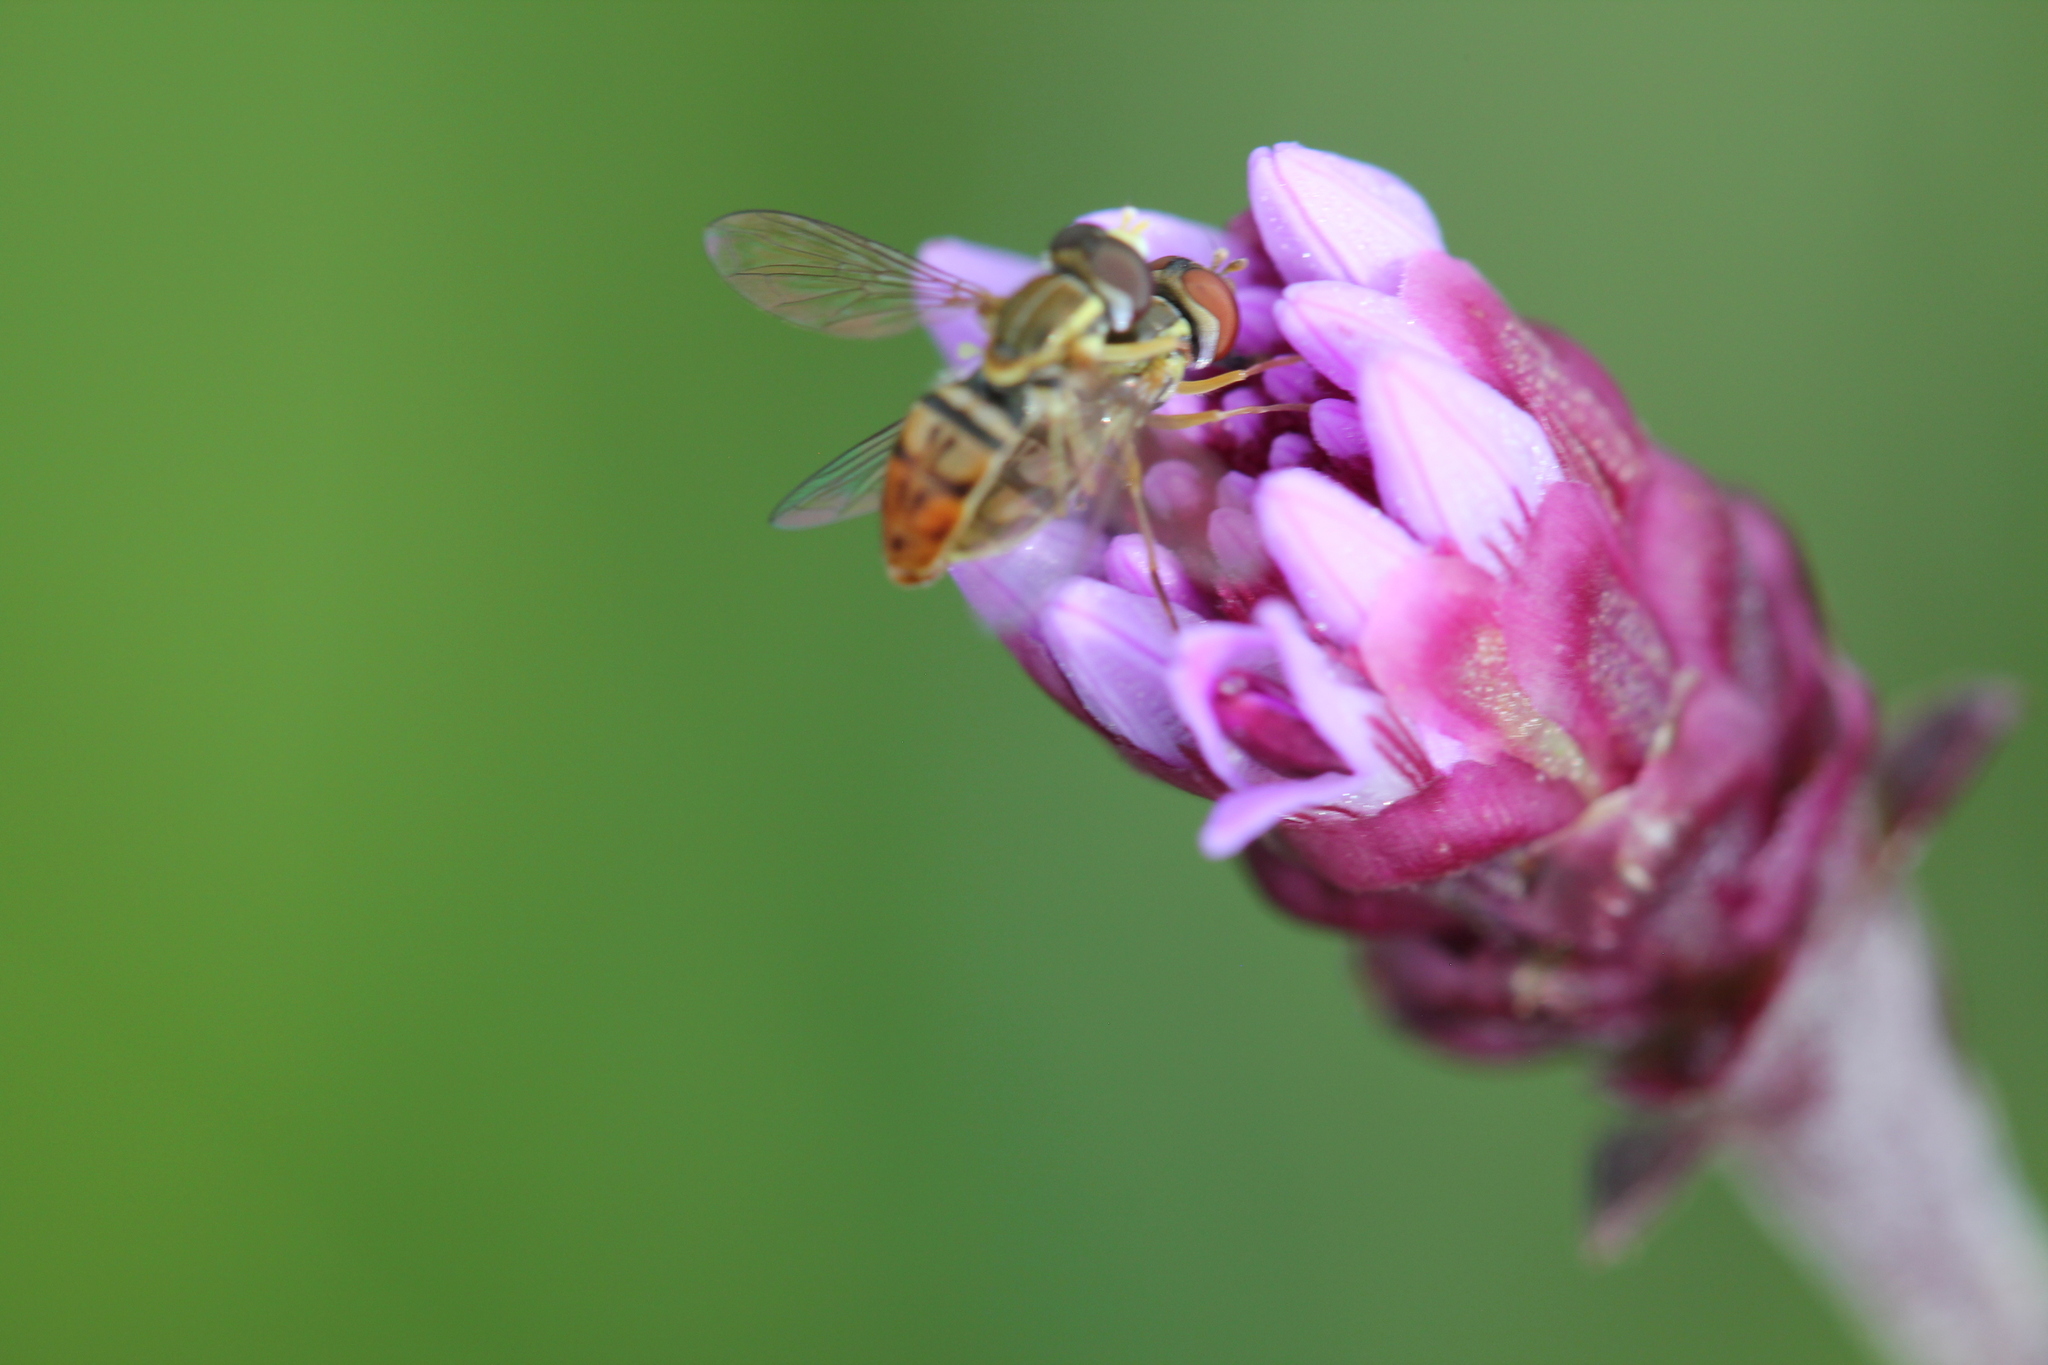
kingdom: Animalia
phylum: Arthropoda
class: Insecta
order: Diptera
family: Syrphidae
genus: Toxomerus
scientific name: Toxomerus marginatus
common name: Syrphid fly
